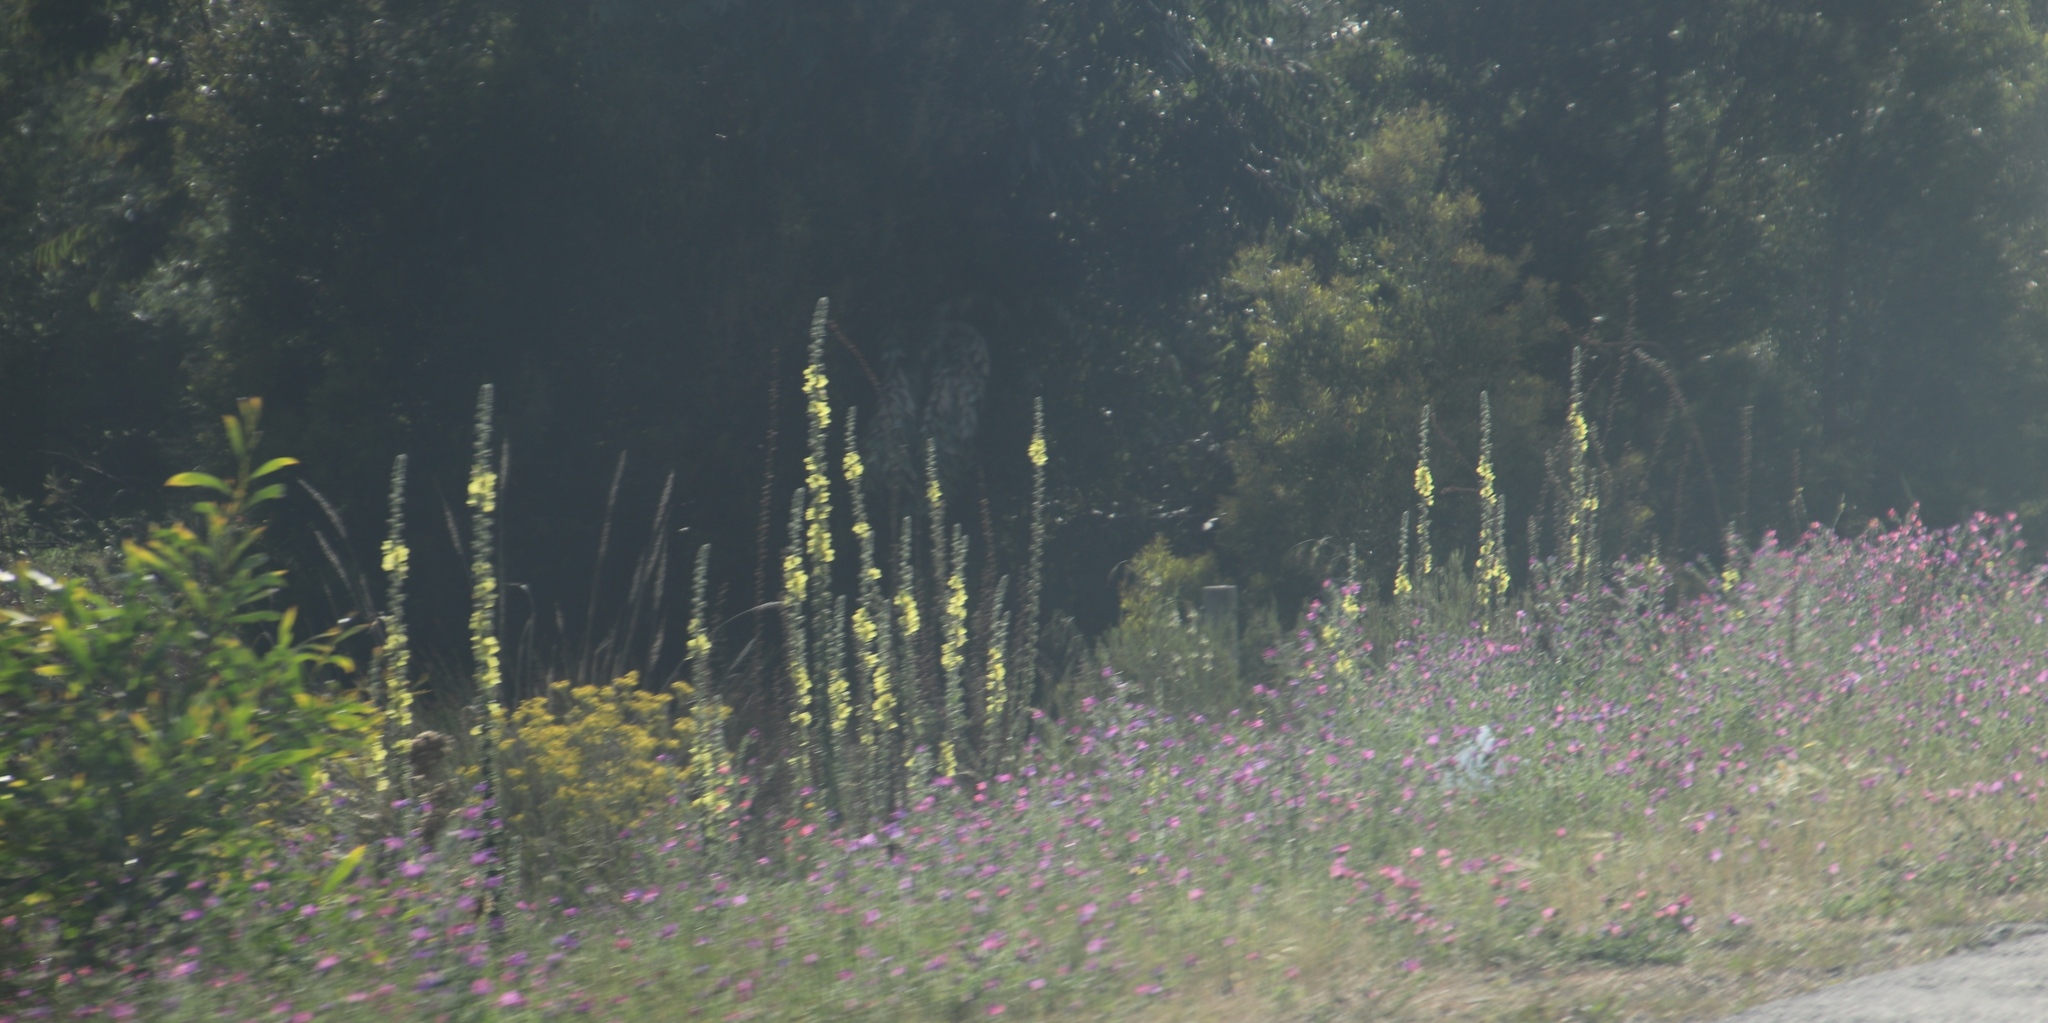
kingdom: Plantae
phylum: Tracheophyta
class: Magnoliopsida
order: Lamiales
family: Scrophulariaceae
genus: Verbascum
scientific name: Verbascum virgatum
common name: Twiggy mullein
